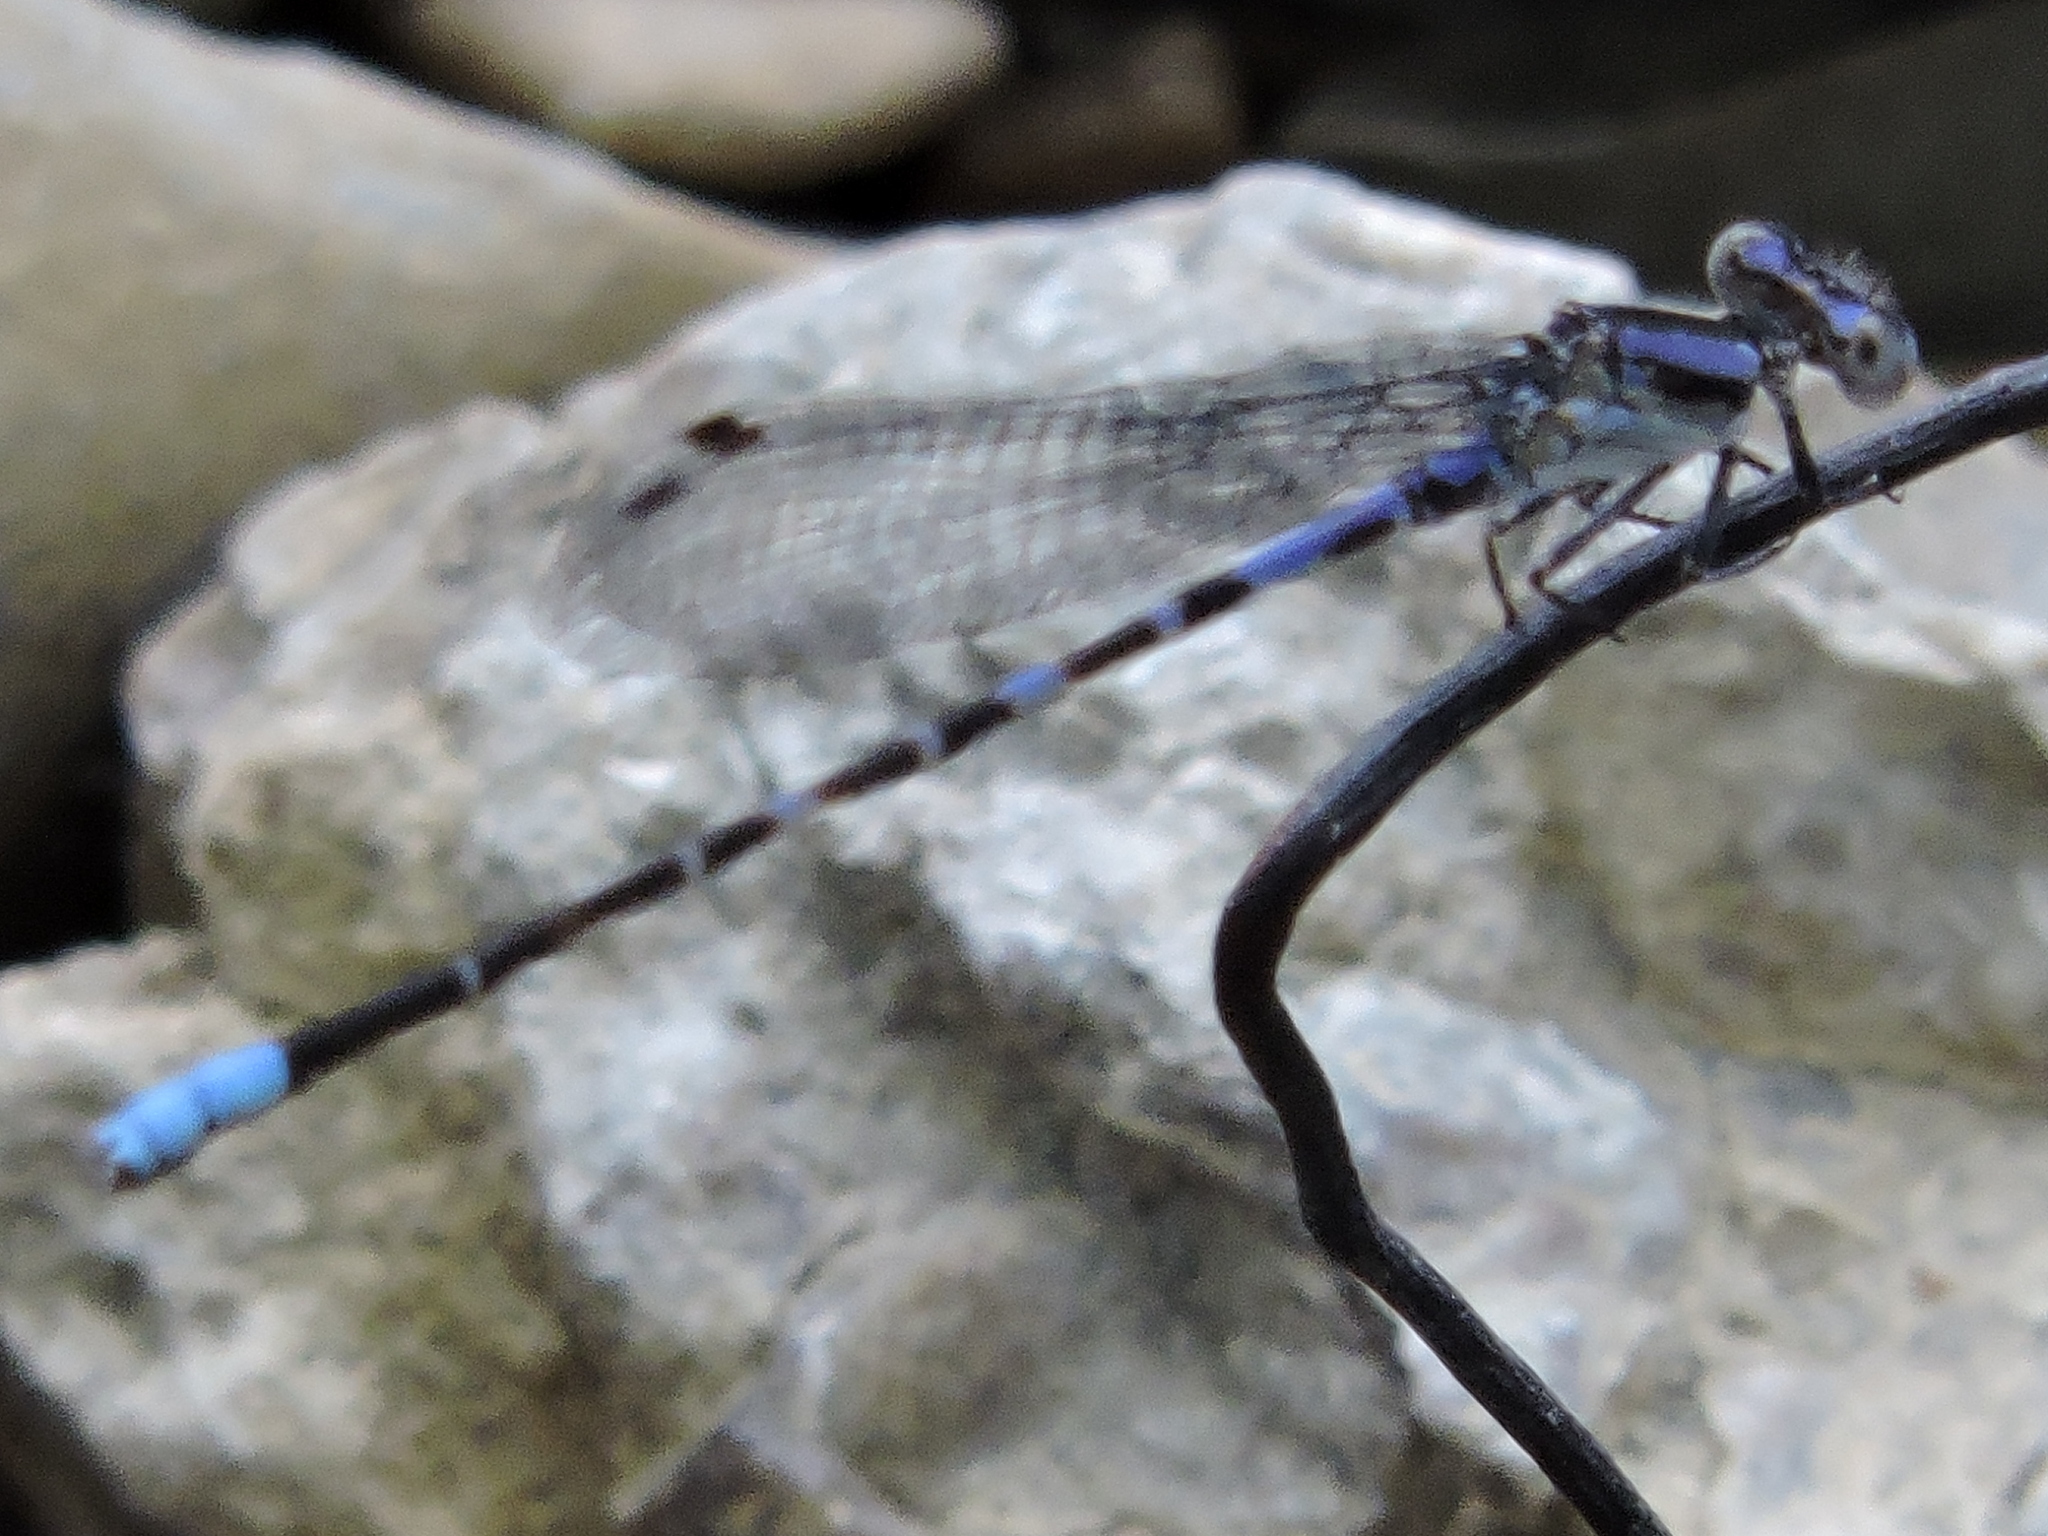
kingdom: Animalia
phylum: Arthropoda
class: Insecta
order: Odonata
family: Coenagrionidae
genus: Argia
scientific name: Argia immunda
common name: Kiowa dancer
